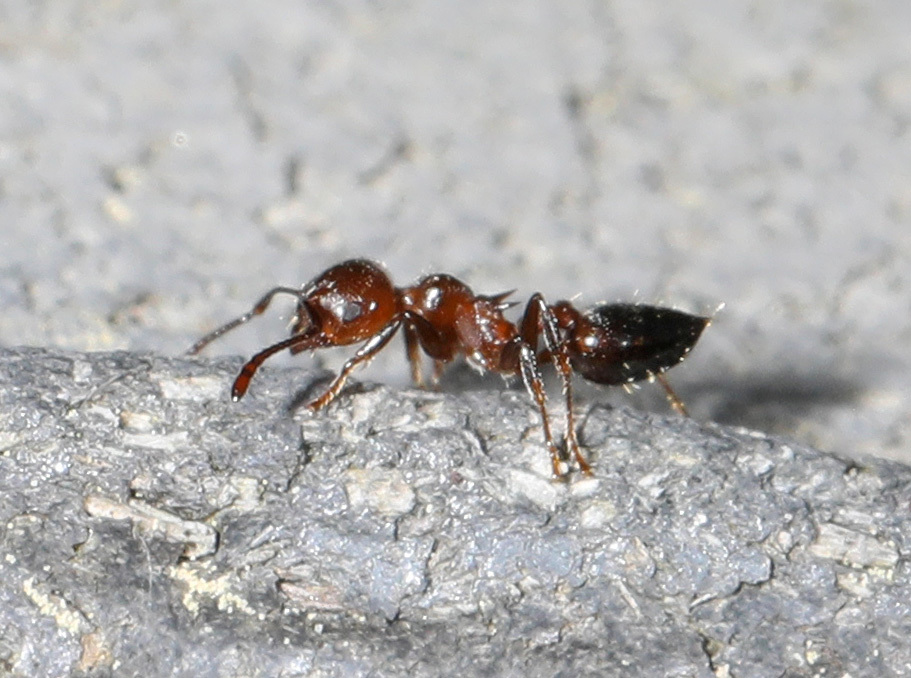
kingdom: Animalia
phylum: Arthropoda
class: Insecta
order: Hymenoptera
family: Formicidae
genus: Crematogaster
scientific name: Crematogaster pilosa
